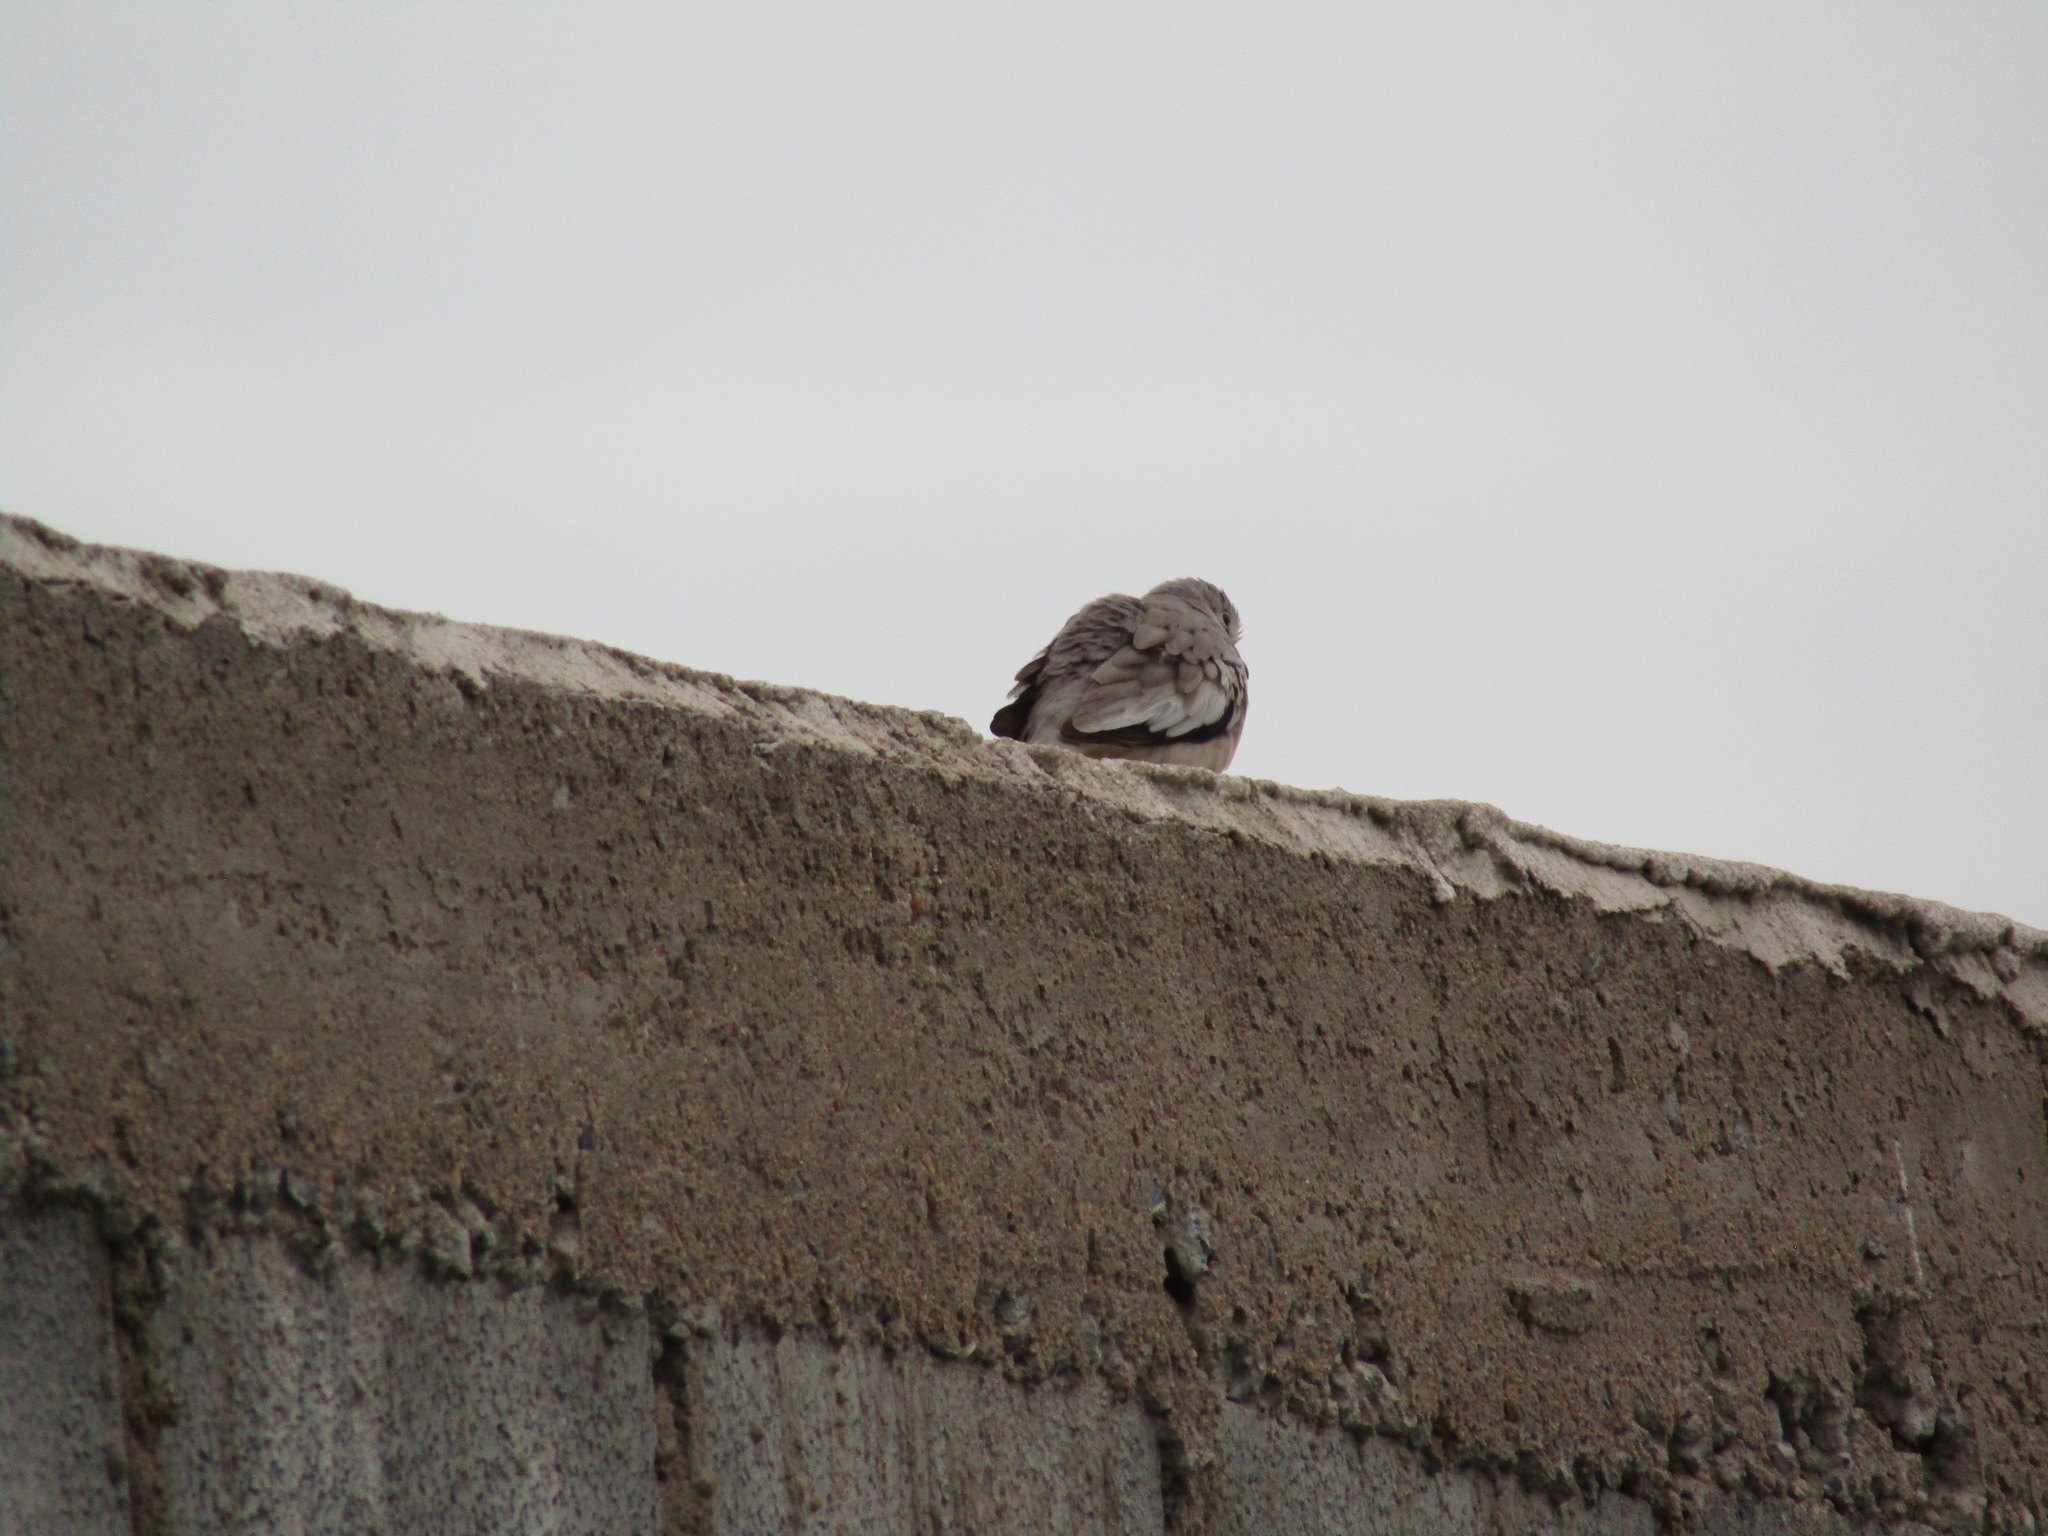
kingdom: Animalia
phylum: Chordata
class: Aves
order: Columbiformes
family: Columbidae
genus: Columbina
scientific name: Columbina picui
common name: Picui ground dove
